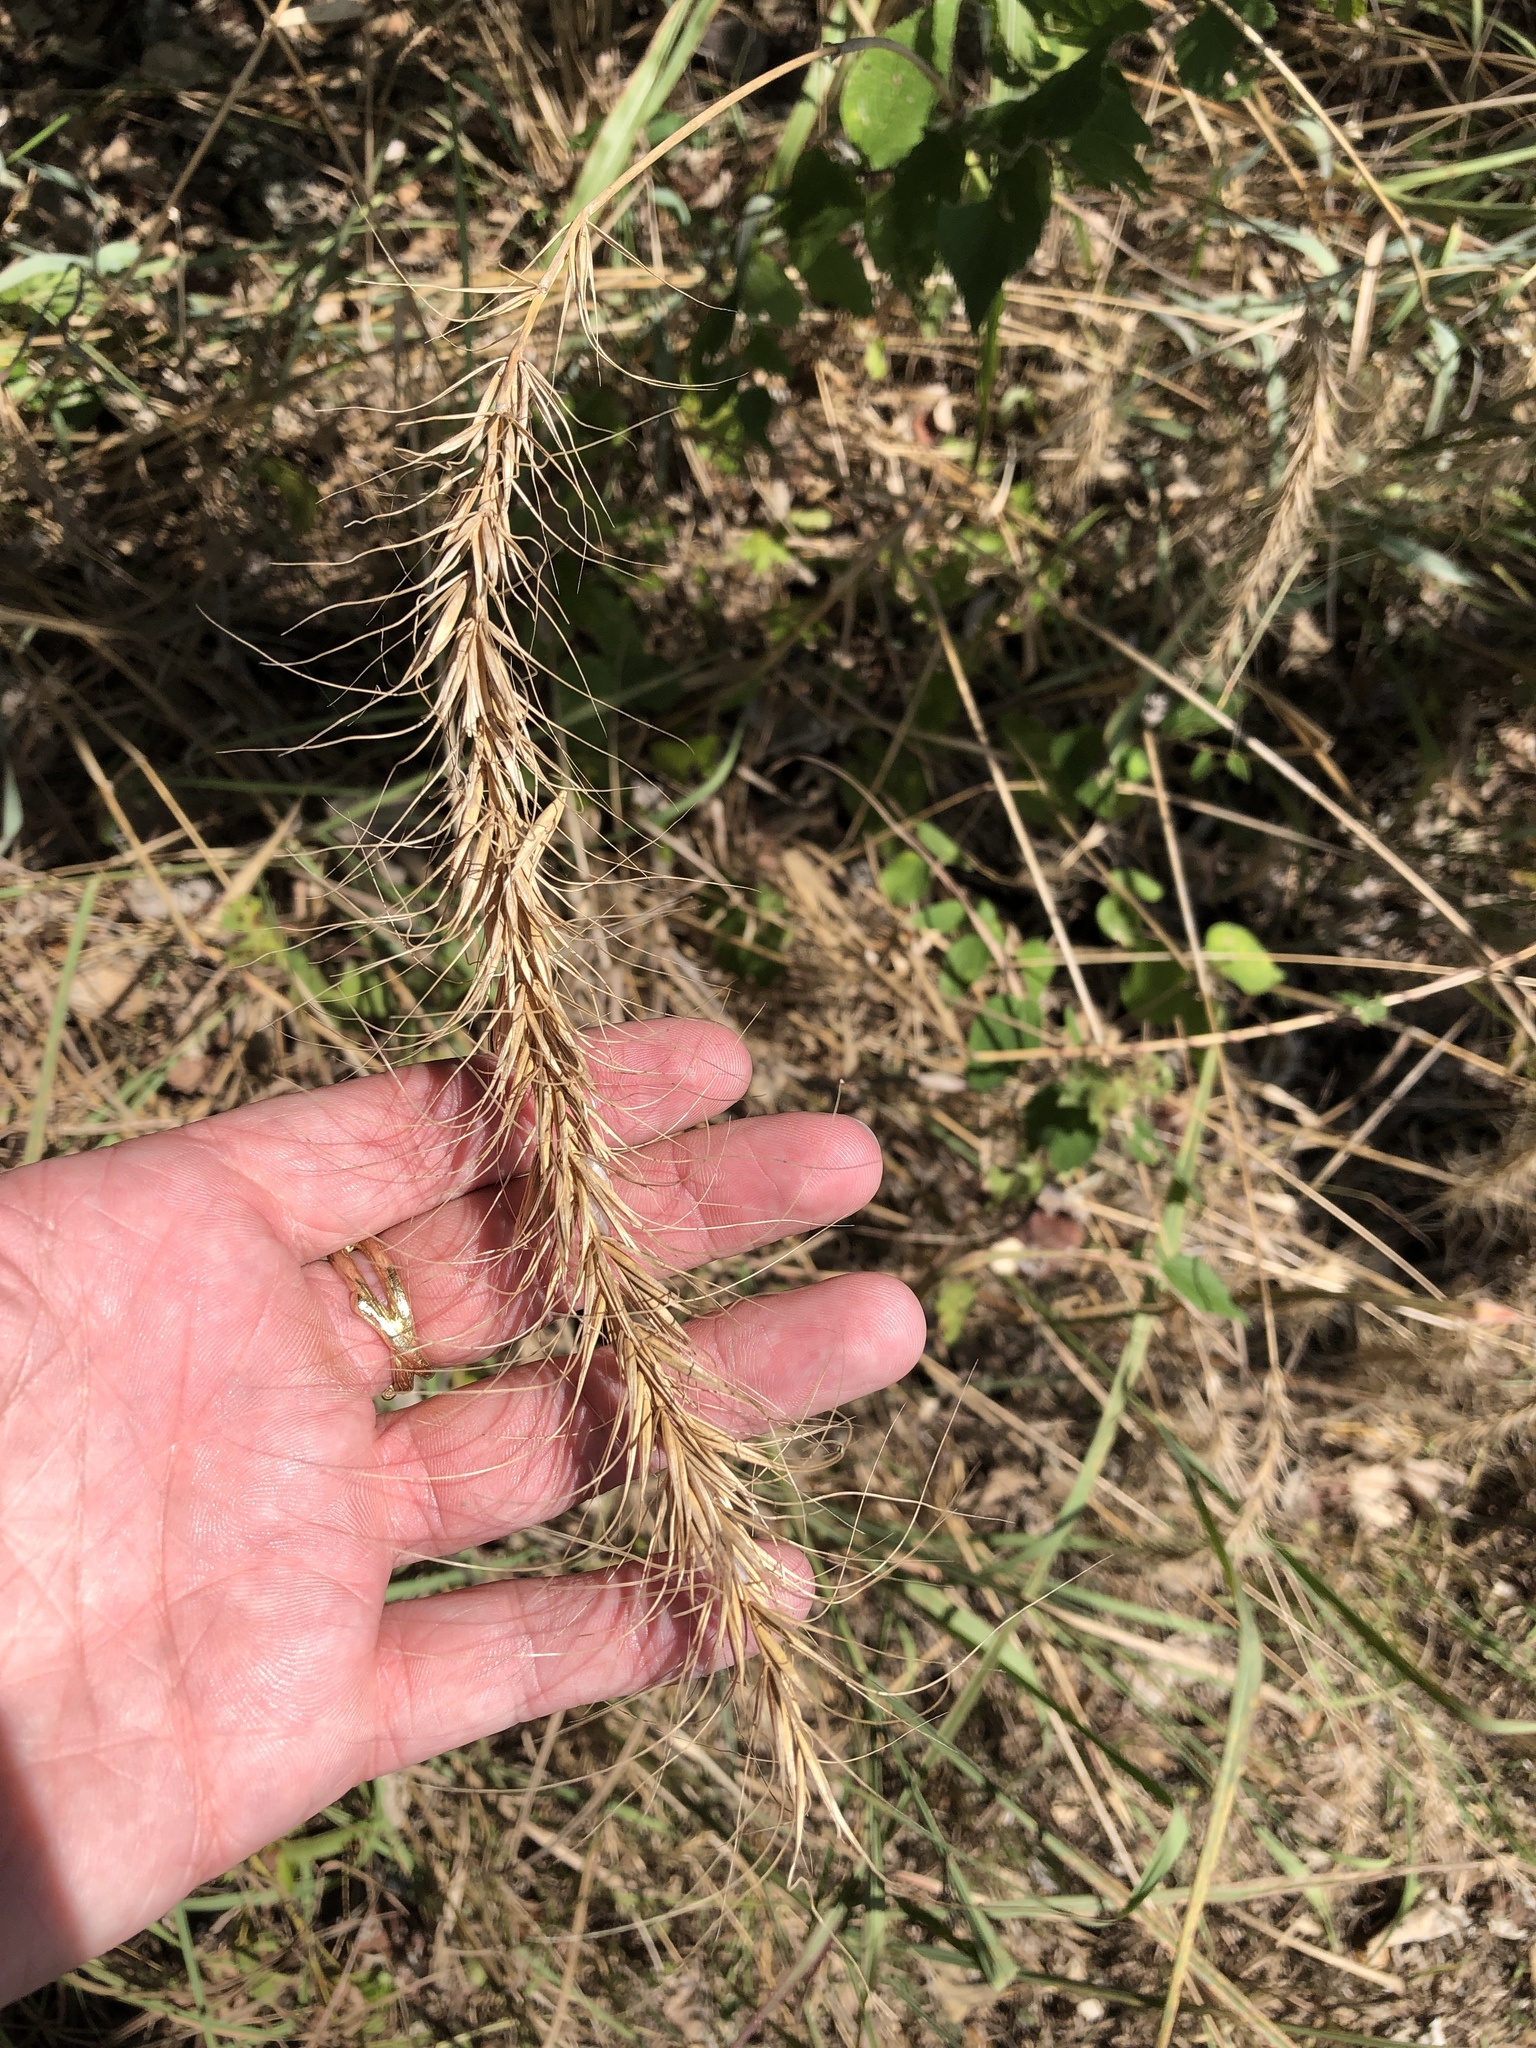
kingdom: Plantae
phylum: Tracheophyta
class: Liliopsida
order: Poales
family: Poaceae
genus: Elymus
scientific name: Elymus canadensis
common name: Canada wild rye
